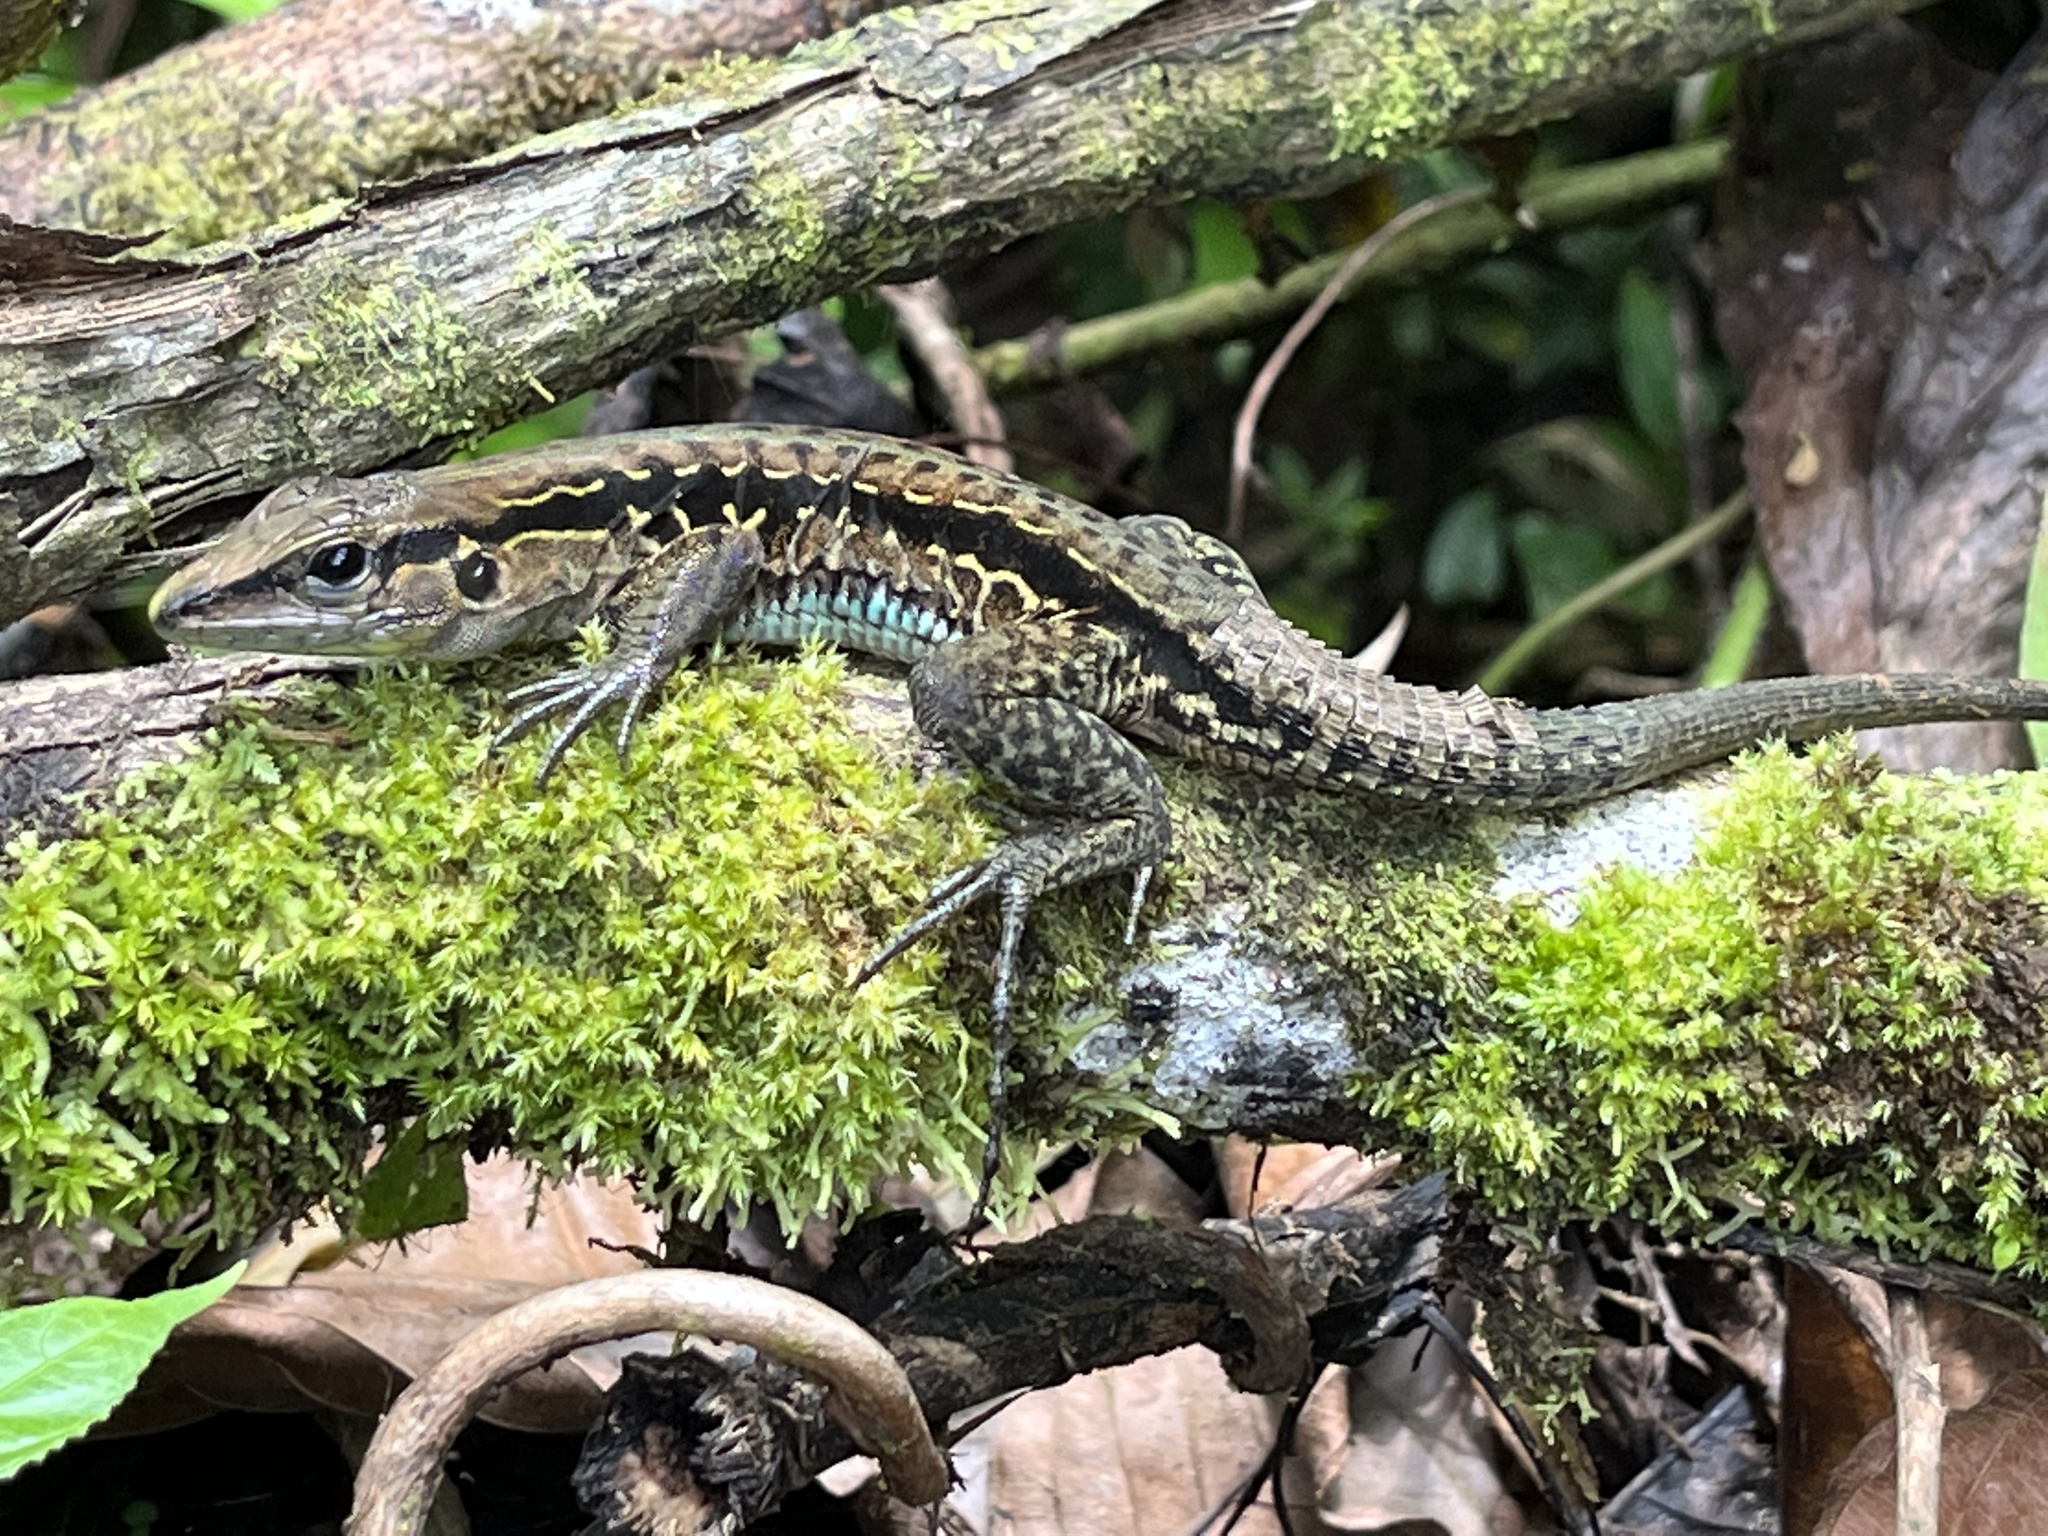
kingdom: Animalia
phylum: Chordata
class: Squamata
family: Teiidae
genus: Holcosus
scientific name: Holcosus festivus
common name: Middle american ameiva
